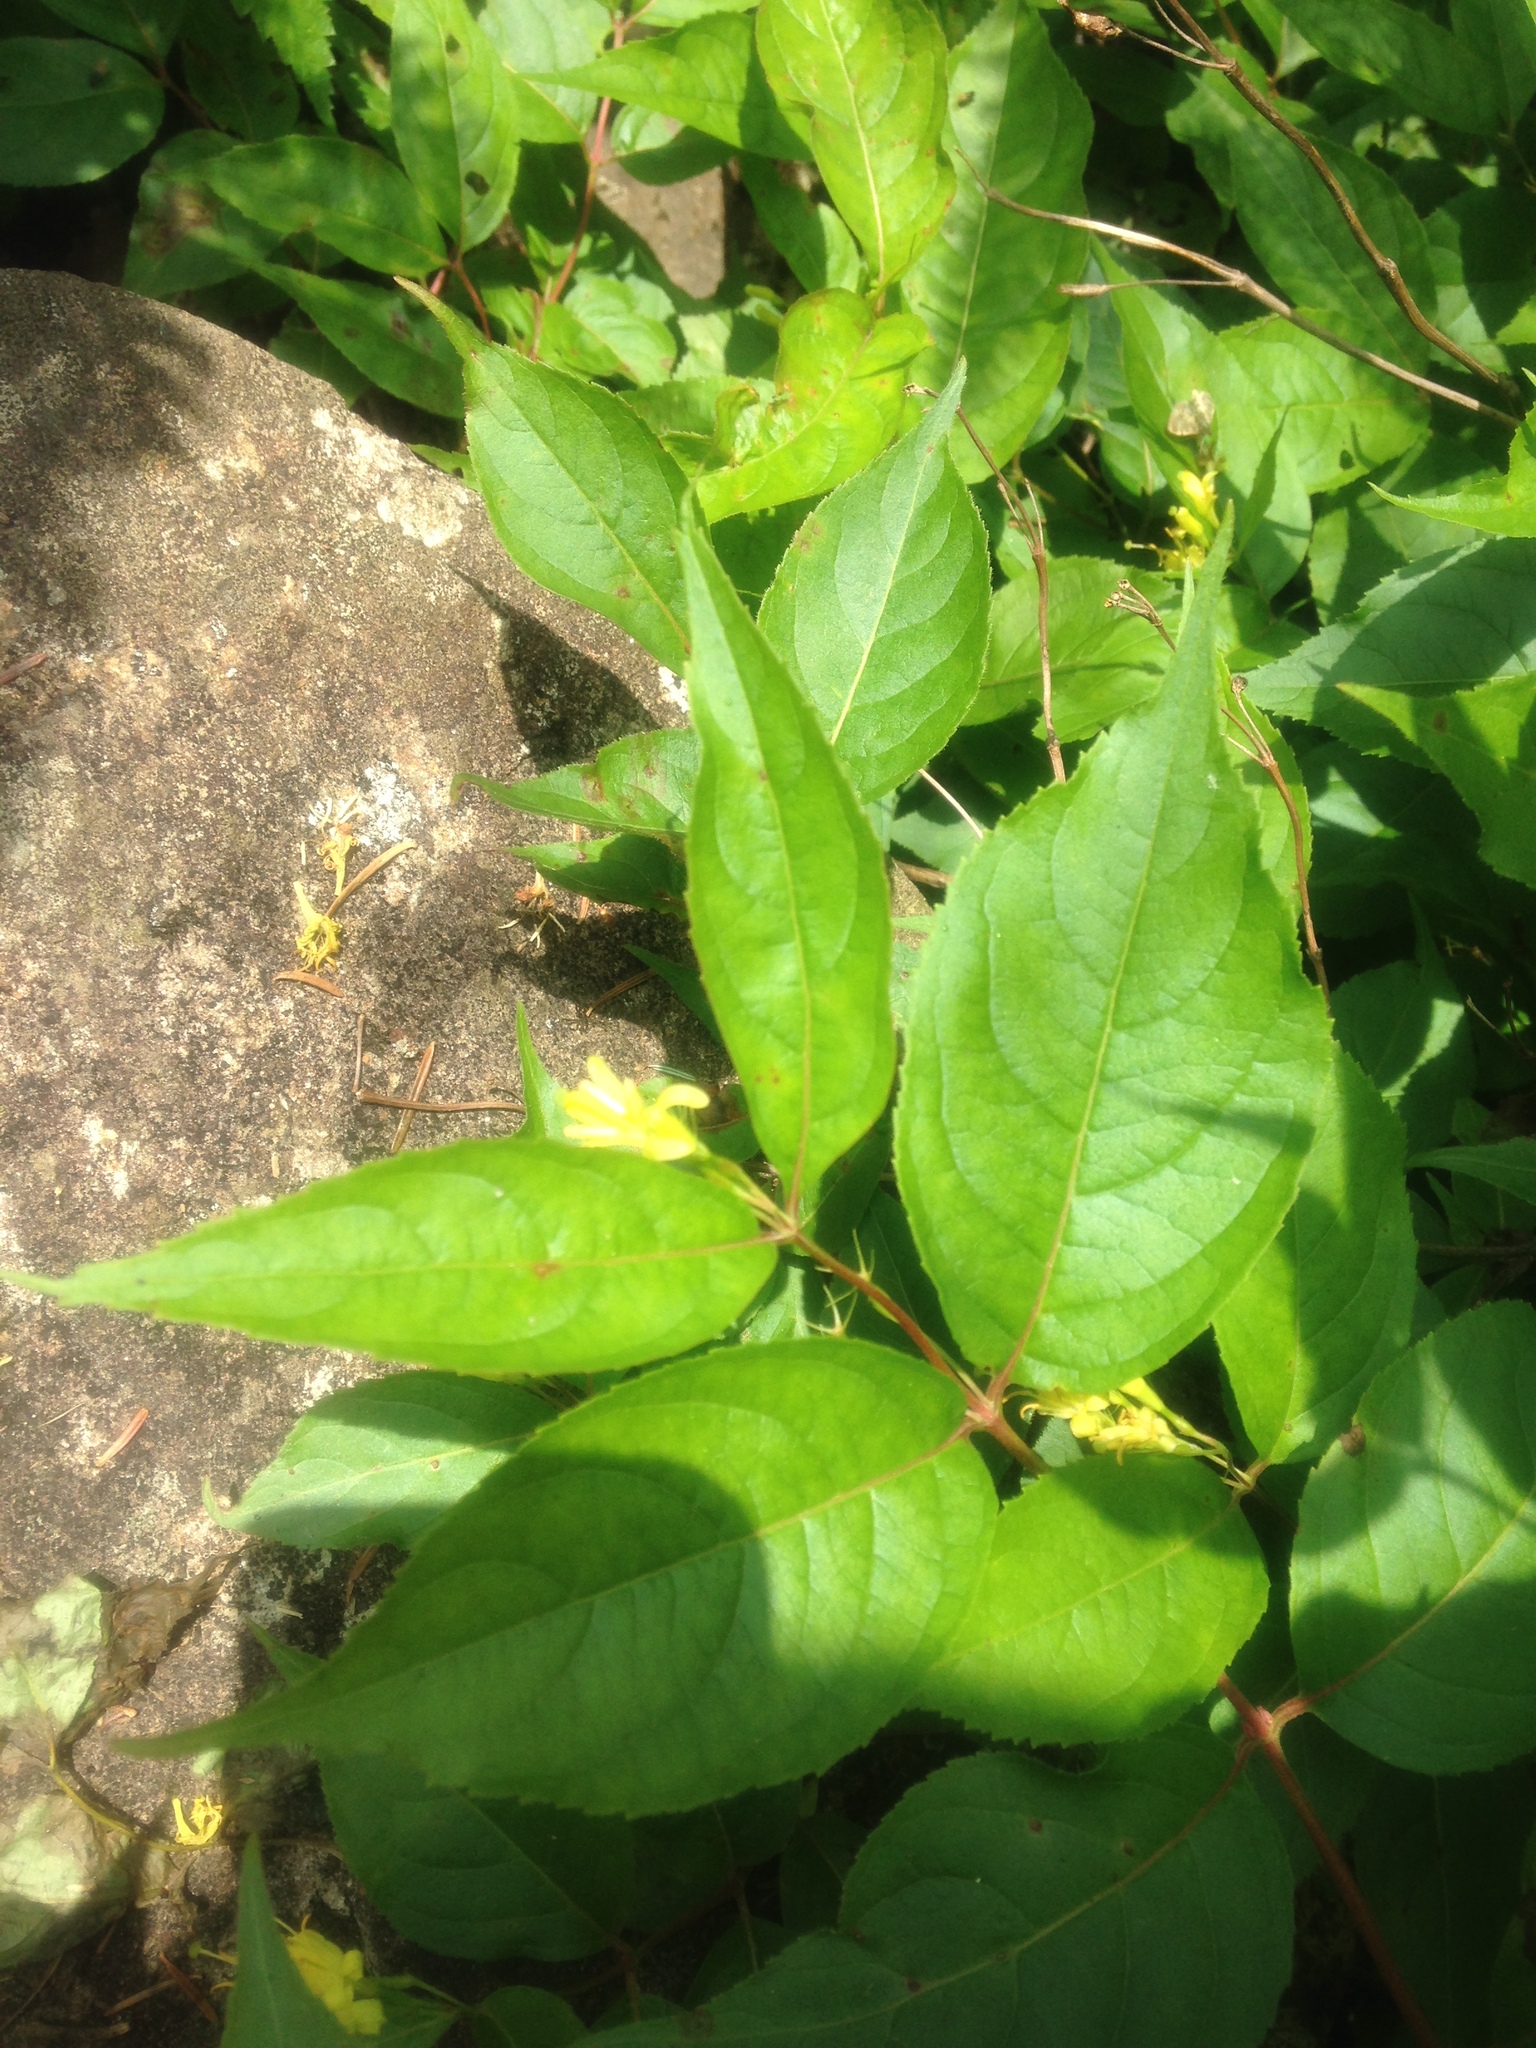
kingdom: Plantae
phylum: Tracheophyta
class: Magnoliopsida
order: Dipsacales
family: Caprifoliaceae
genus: Diervilla
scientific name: Diervilla lonicera
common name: Bush-honeysuckle
